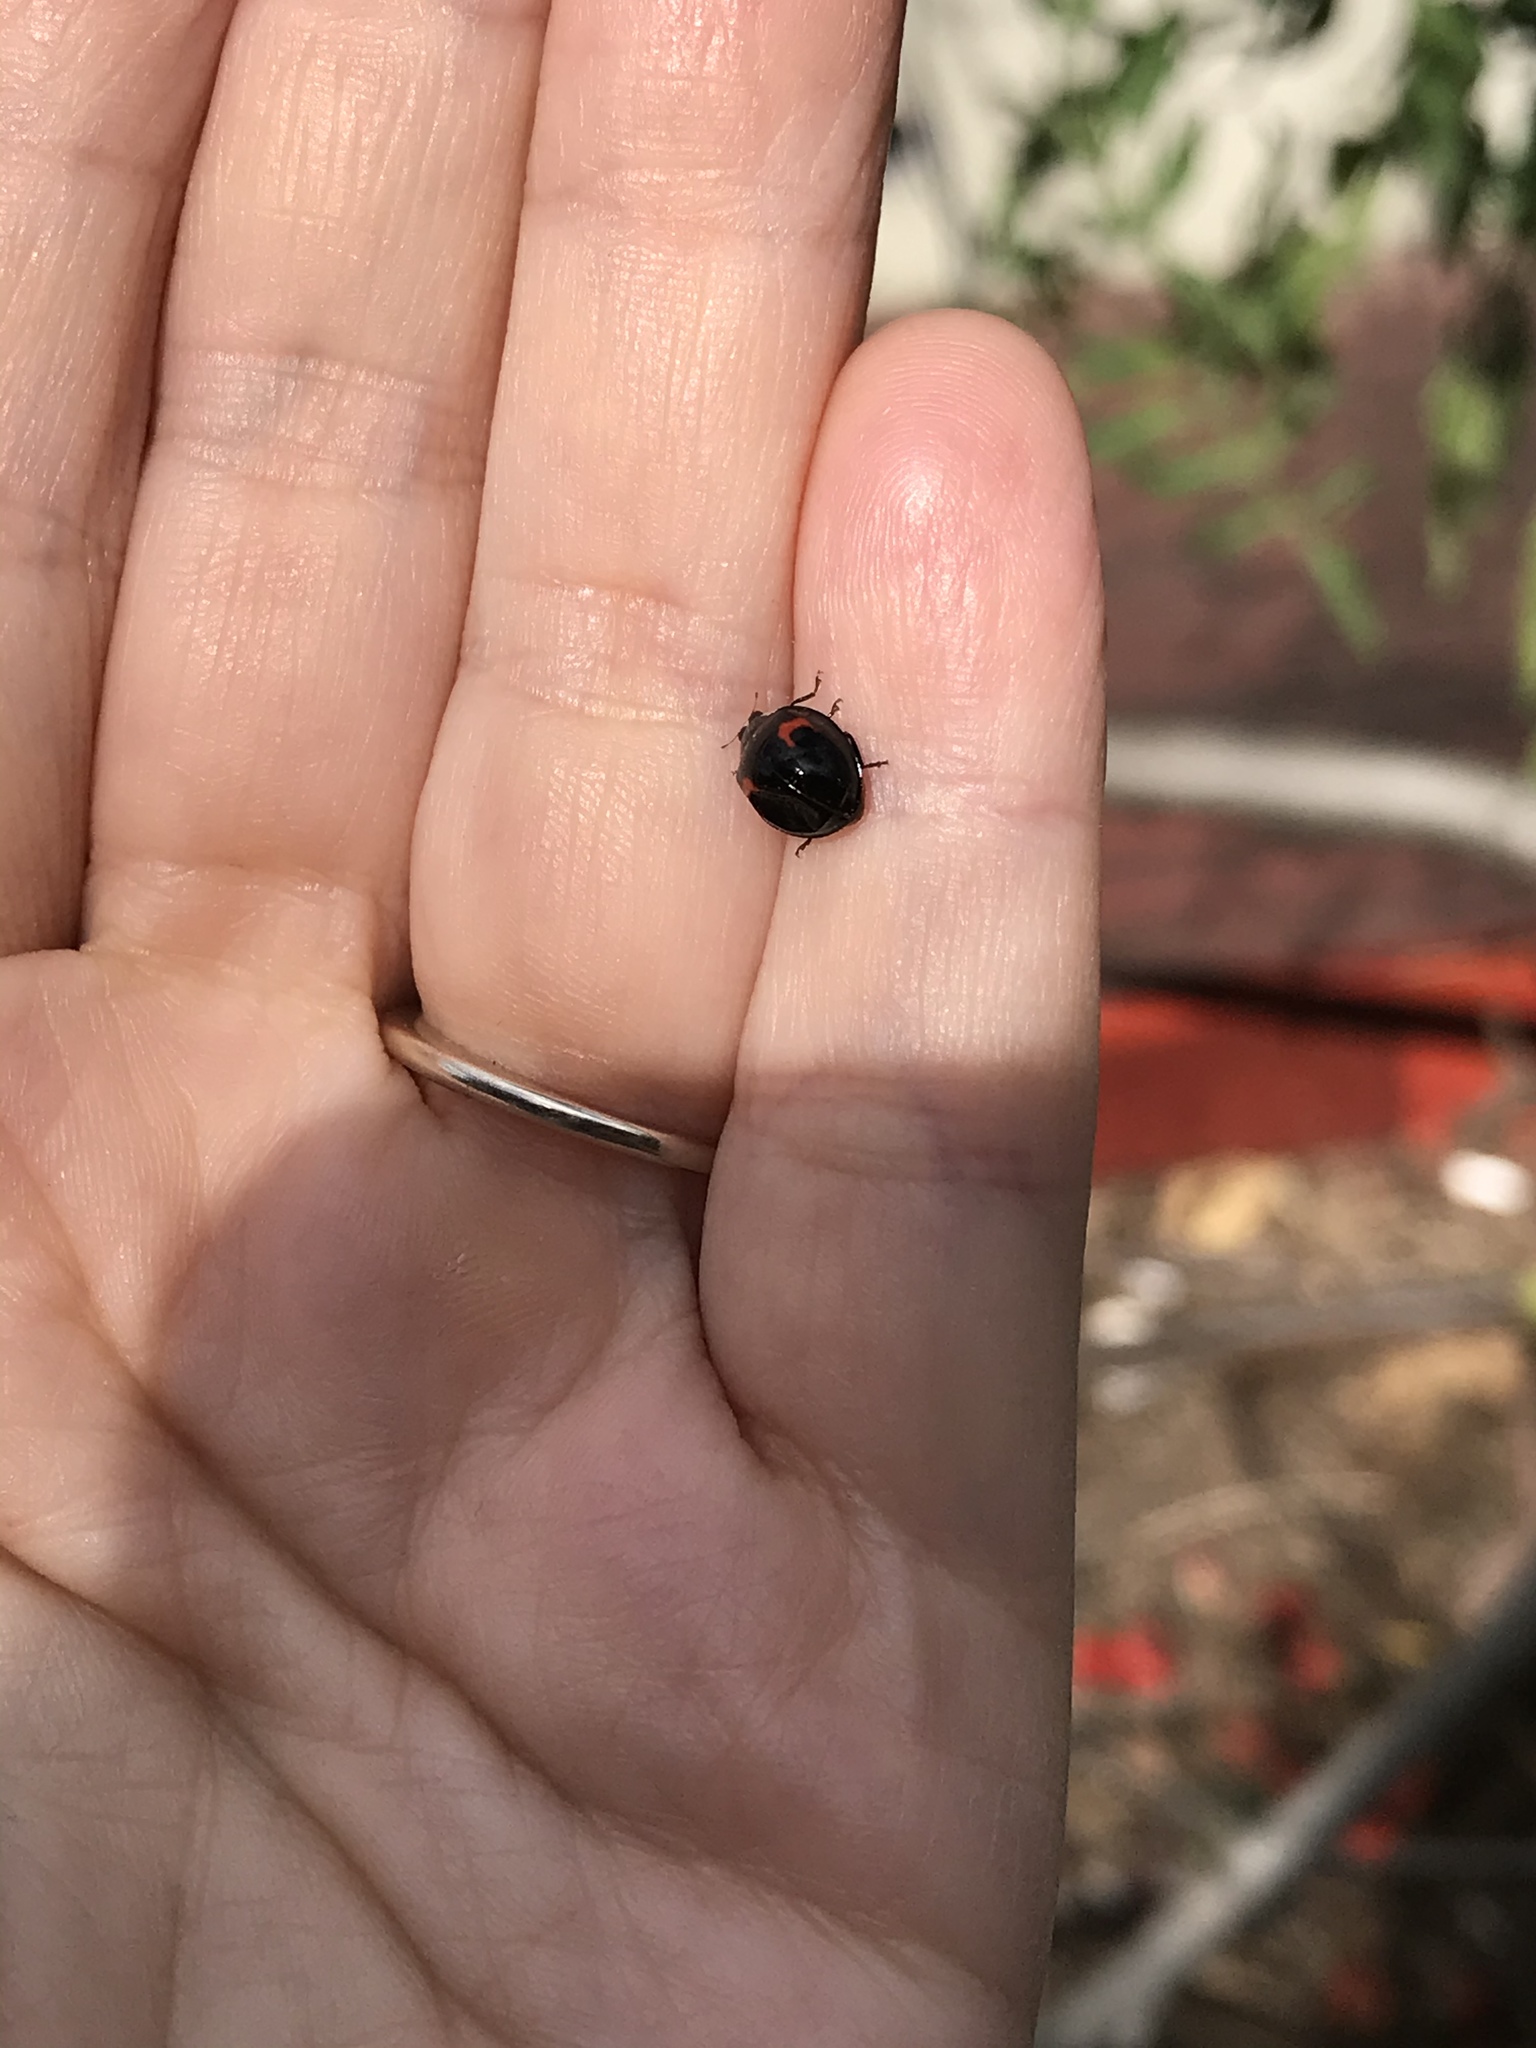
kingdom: Animalia
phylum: Arthropoda
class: Insecta
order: Coleoptera
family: Coccinellidae
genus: Harmonia
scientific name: Harmonia axyridis
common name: Harlequin ladybird
